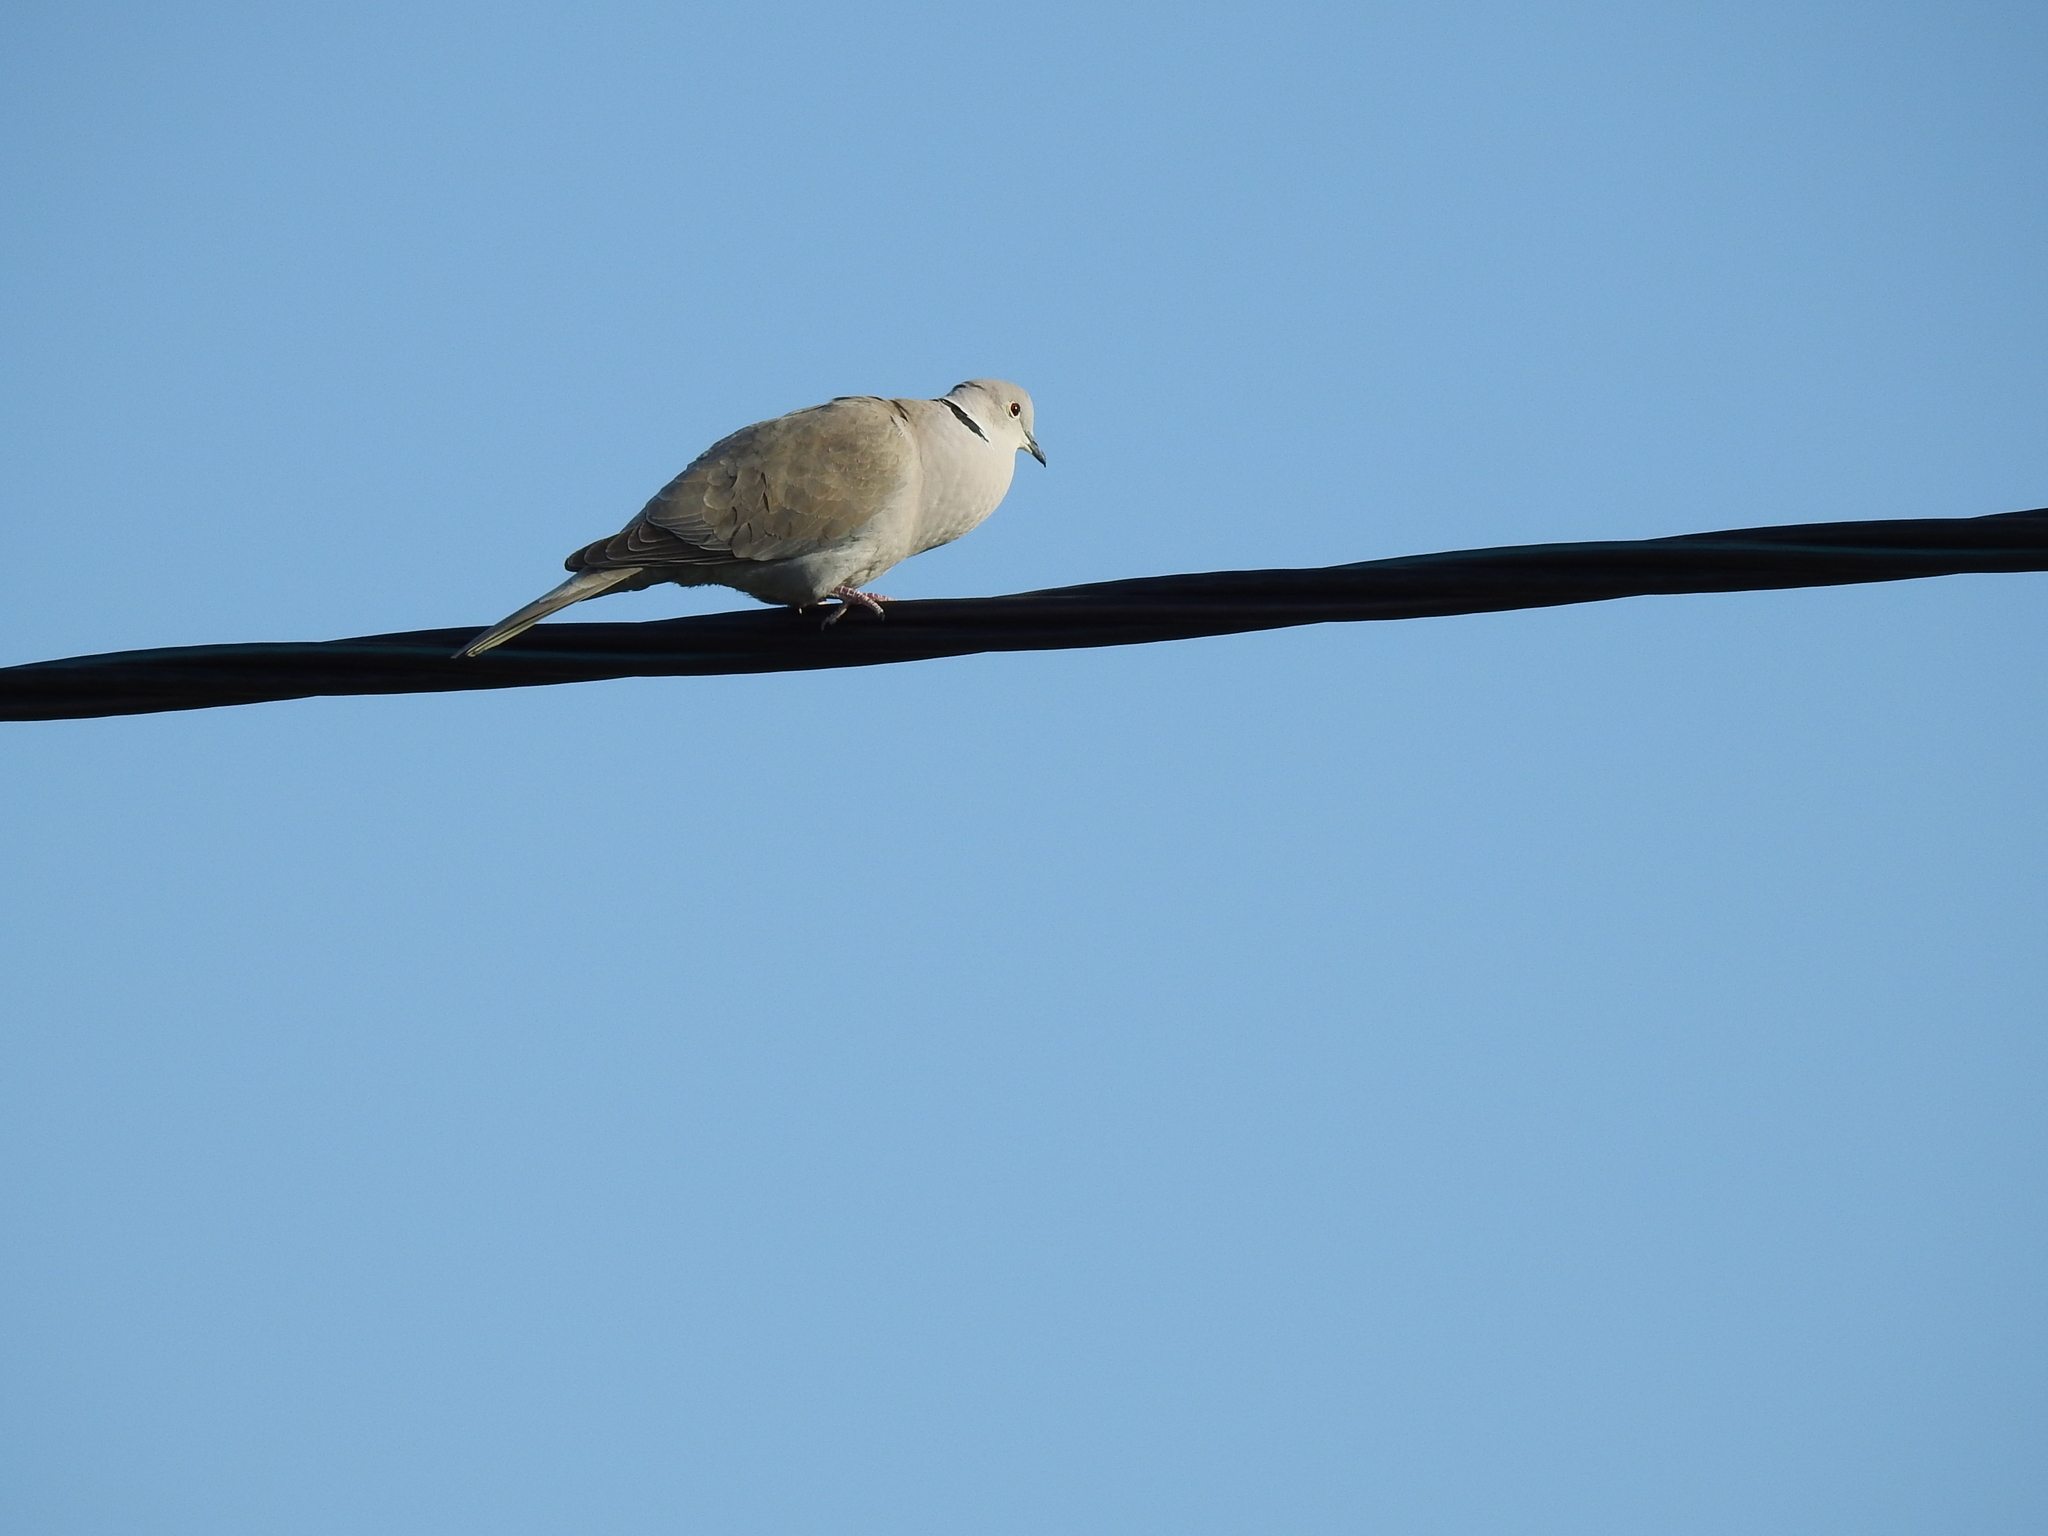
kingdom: Animalia
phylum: Chordata
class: Aves
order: Columbiformes
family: Columbidae
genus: Streptopelia
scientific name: Streptopelia decaocto
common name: Eurasian collared dove
